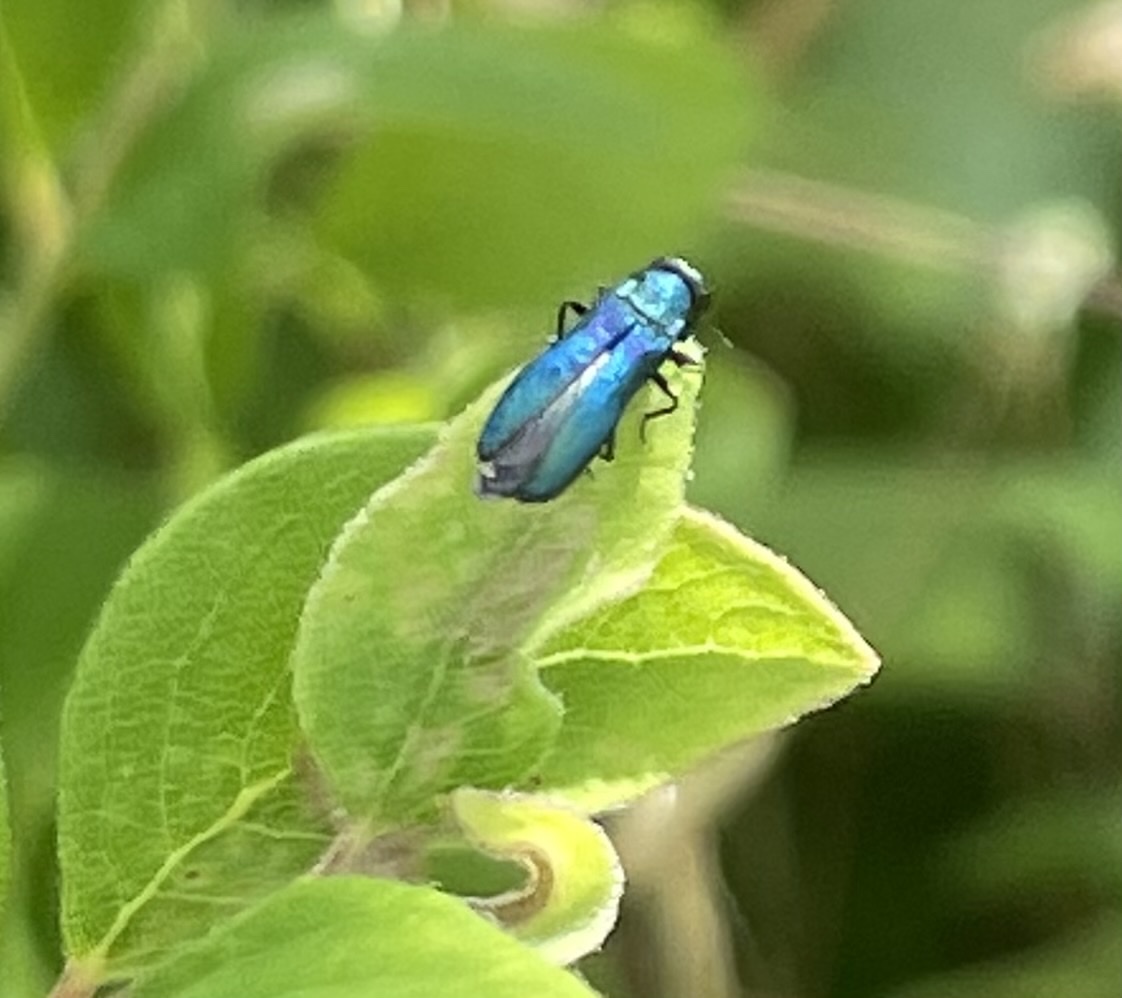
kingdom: Animalia
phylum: Arthropoda
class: Insecta
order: Coleoptera
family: Buprestidae
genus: Agrilus
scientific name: Agrilus cyanescens
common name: Bluish borer beetle
